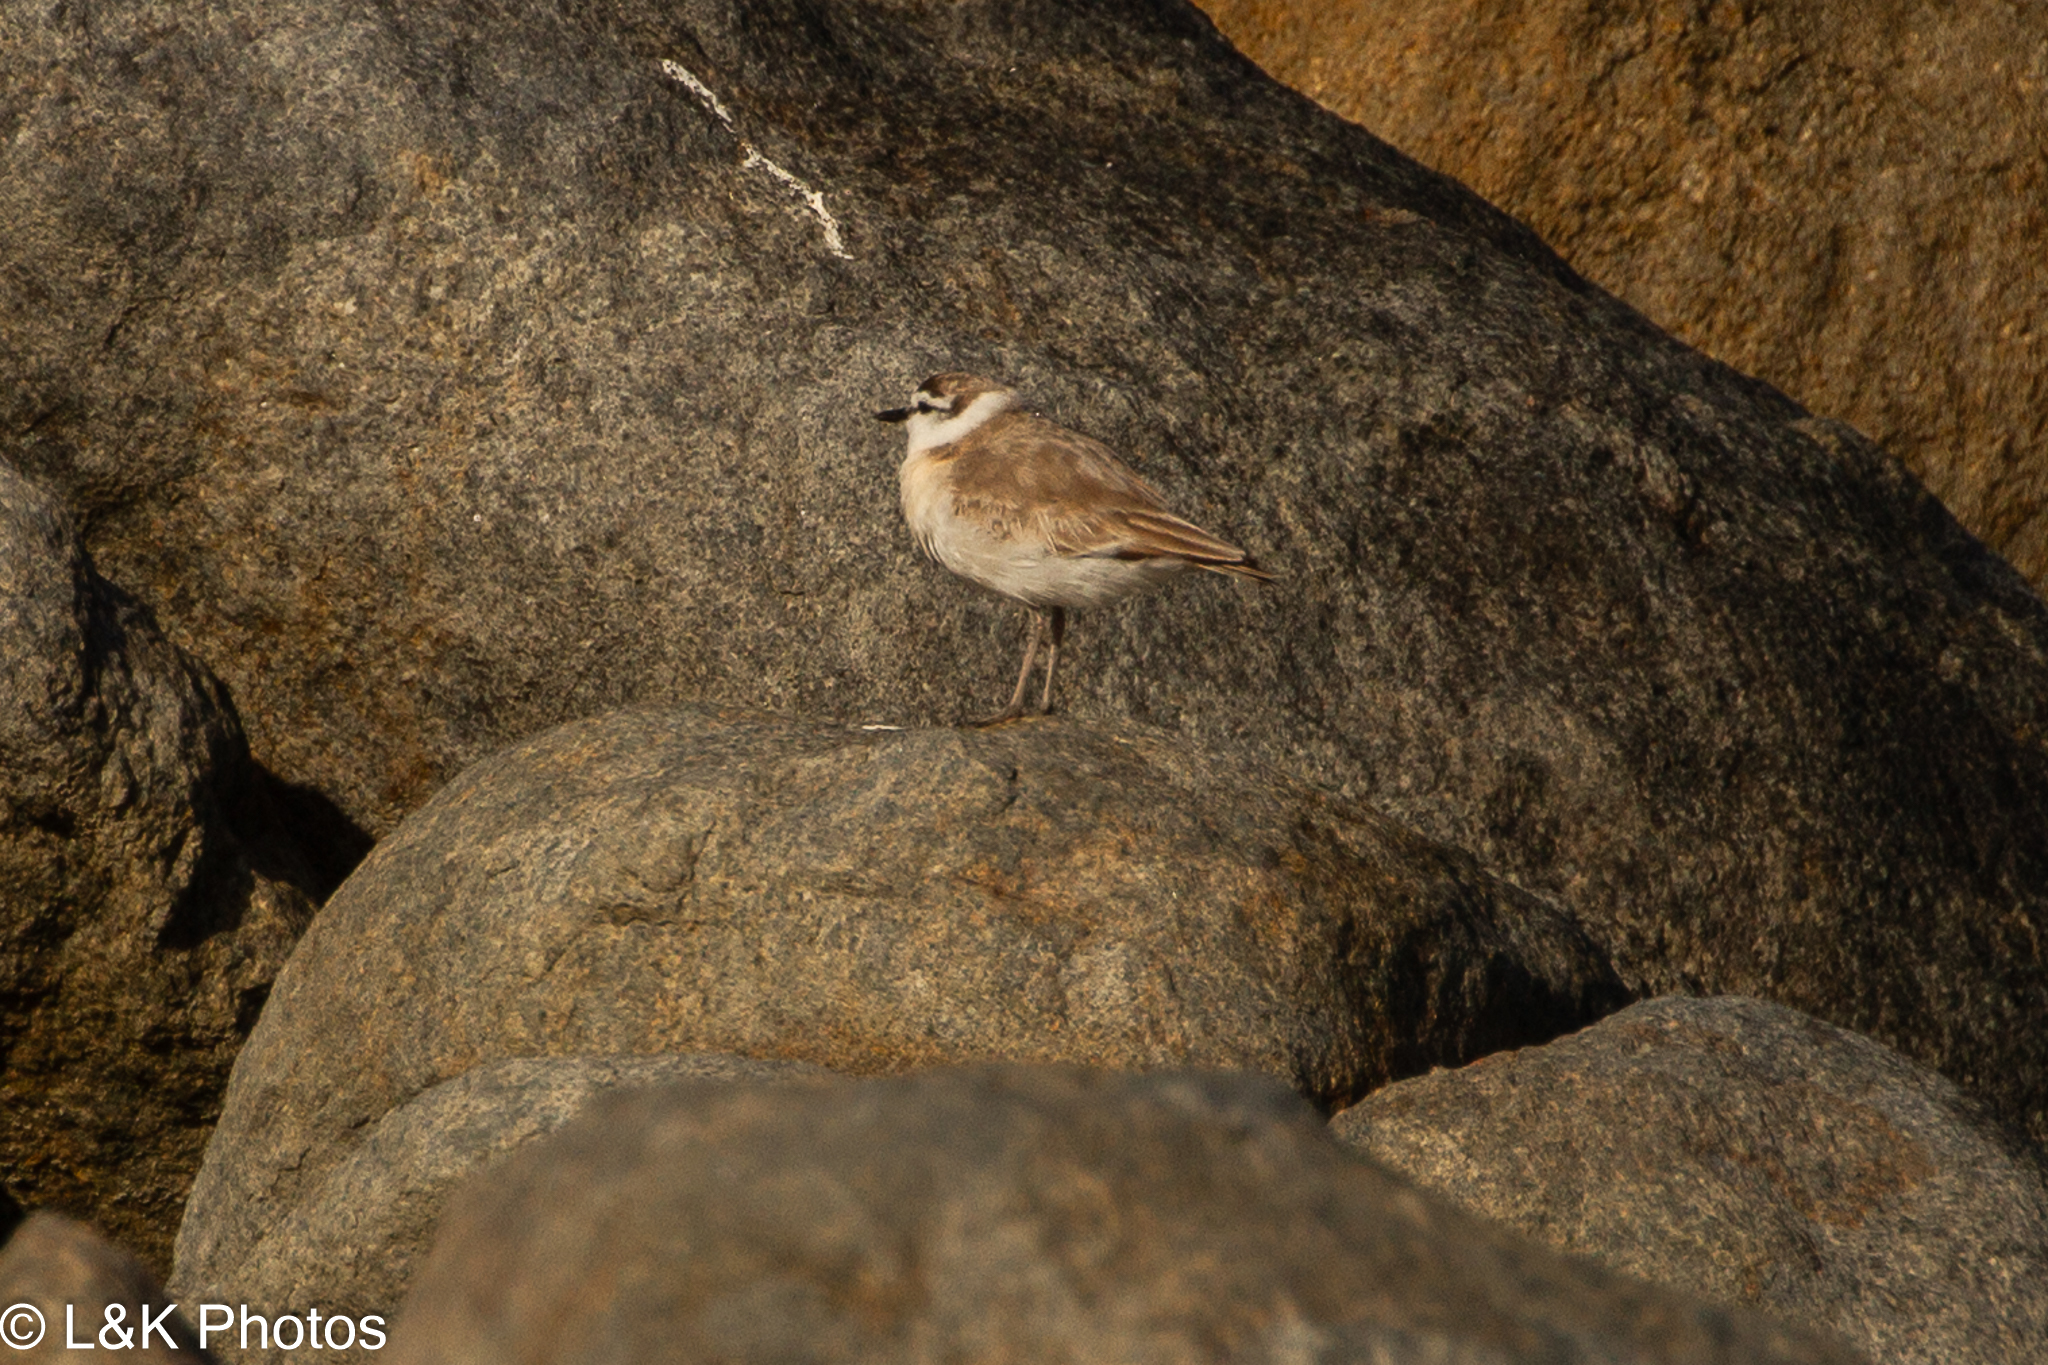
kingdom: Animalia
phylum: Chordata
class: Aves
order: Charadriiformes
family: Charadriidae
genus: Anarhynchus
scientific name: Anarhynchus
